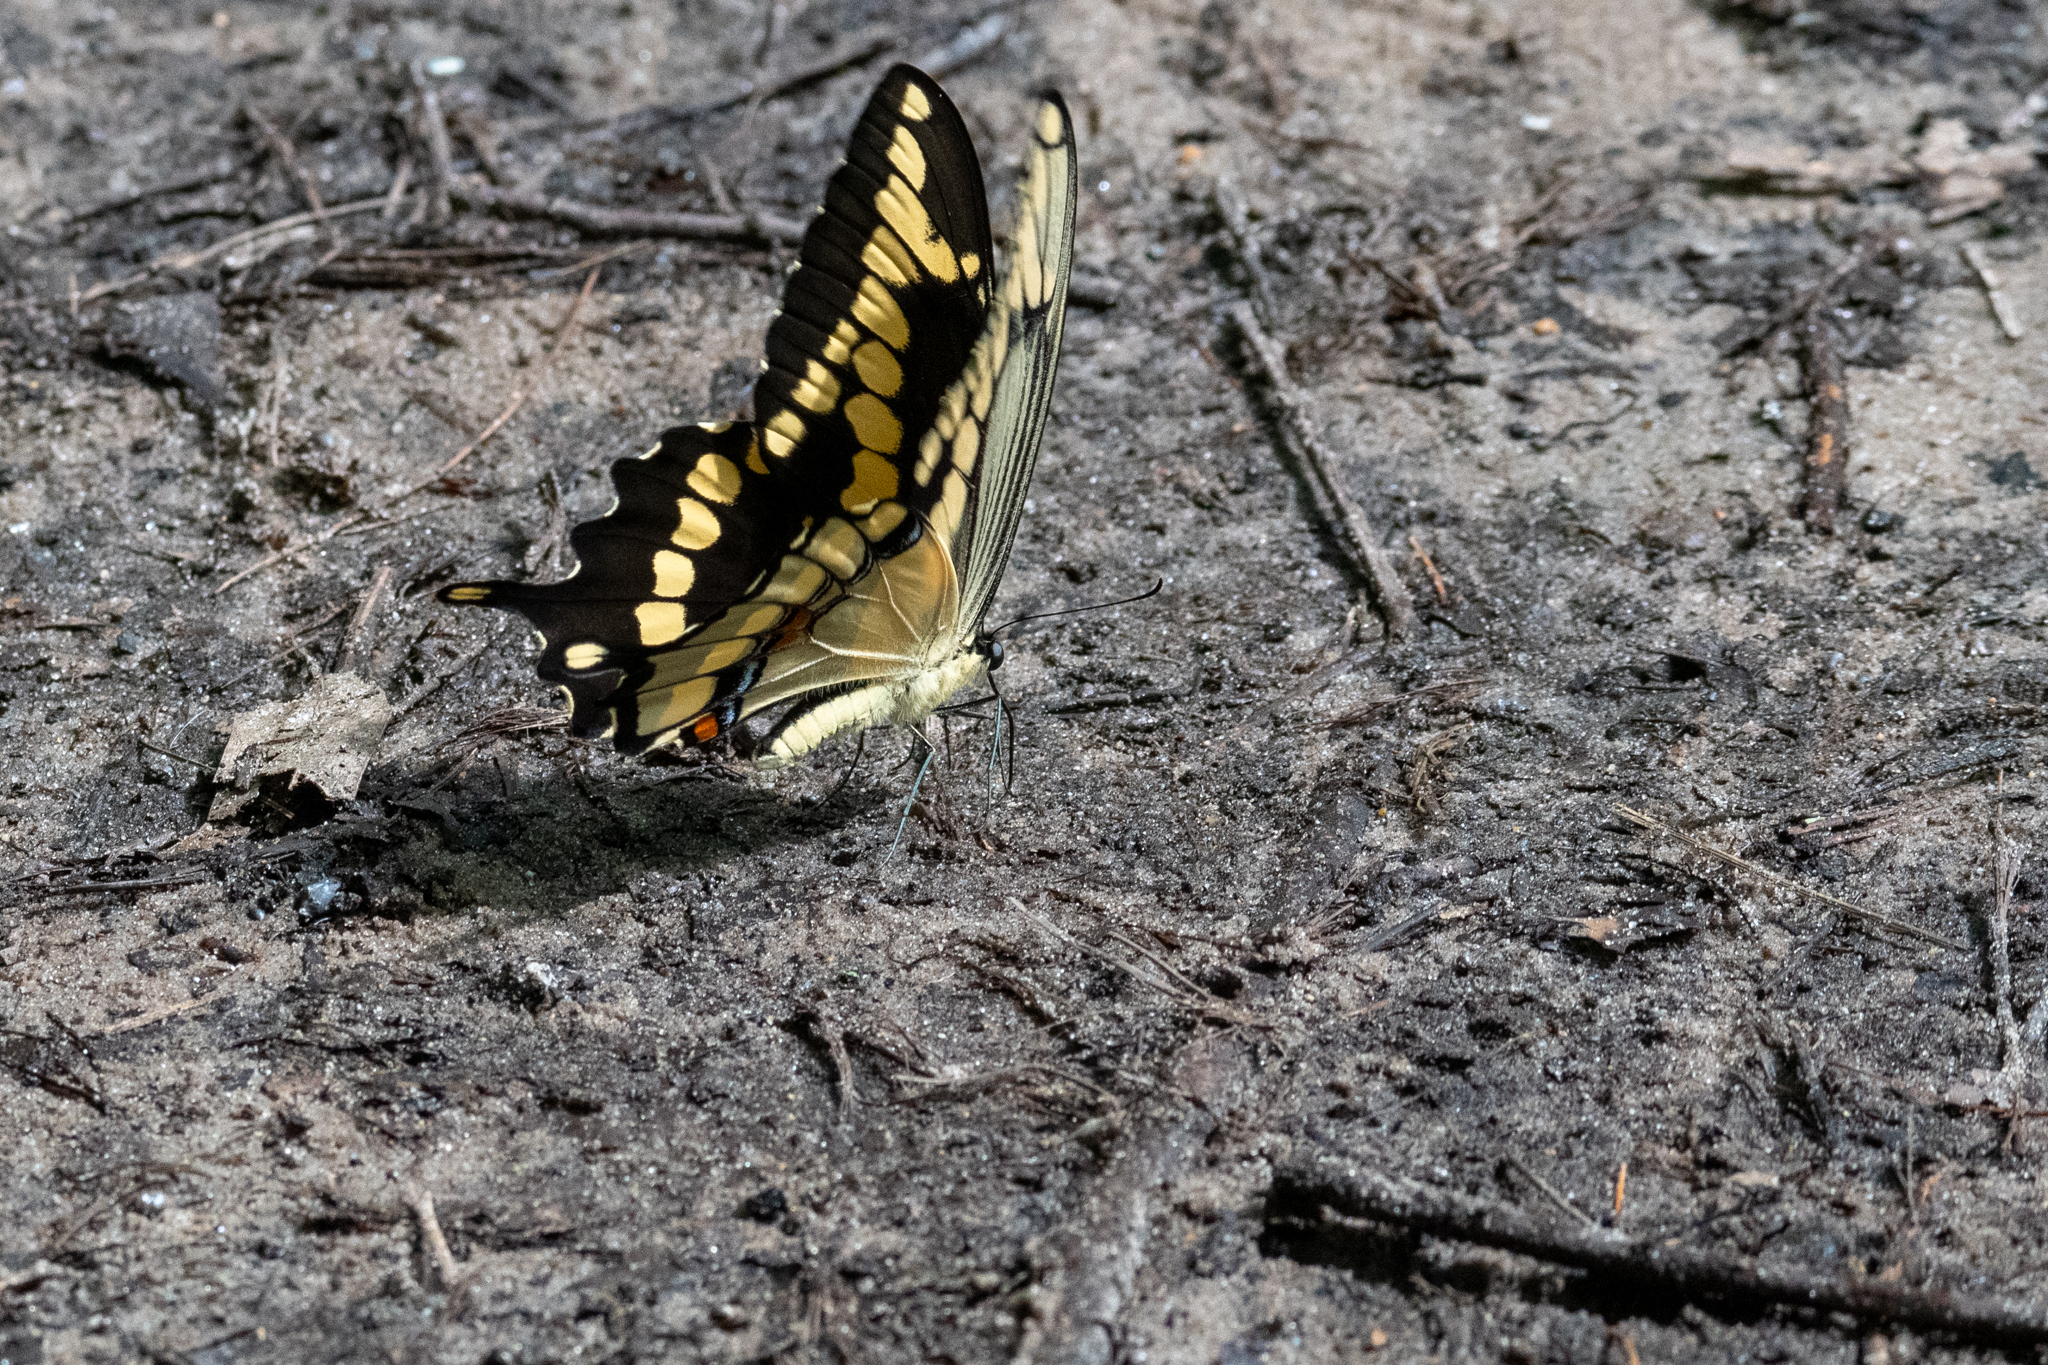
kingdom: Animalia
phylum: Arthropoda
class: Insecta
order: Lepidoptera
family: Papilionidae
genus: Papilio
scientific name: Papilio cresphontes
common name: Giant swallowtail
